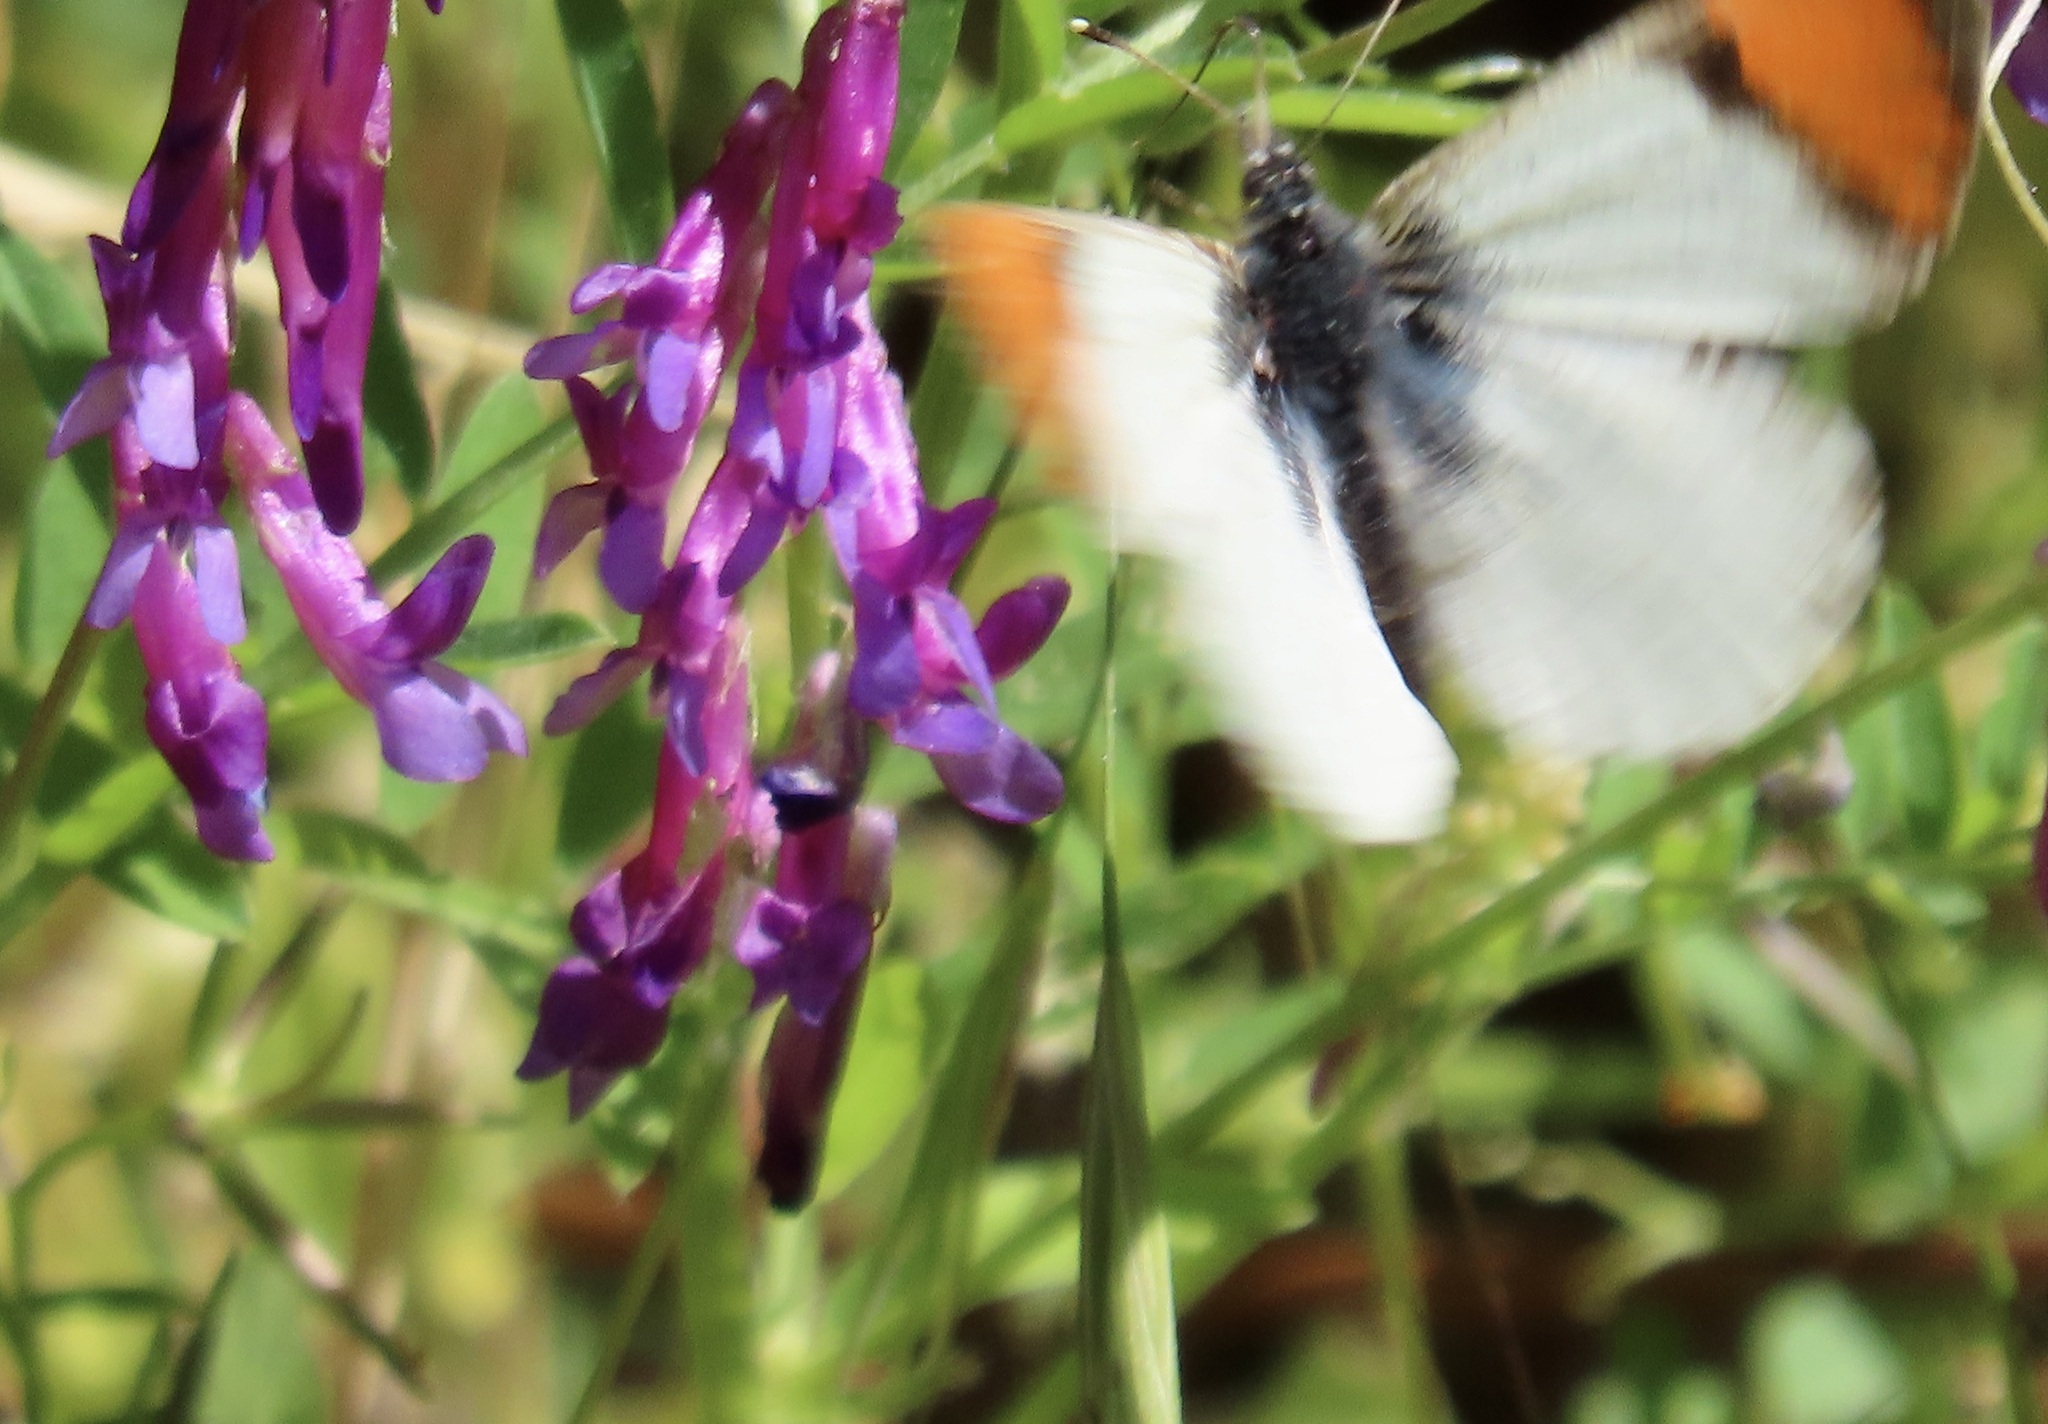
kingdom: Animalia
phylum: Arthropoda
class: Insecta
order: Lepidoptera
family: Pieridae
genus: Anthocharis
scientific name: Anthocharis sara
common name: Sara's orangetip
